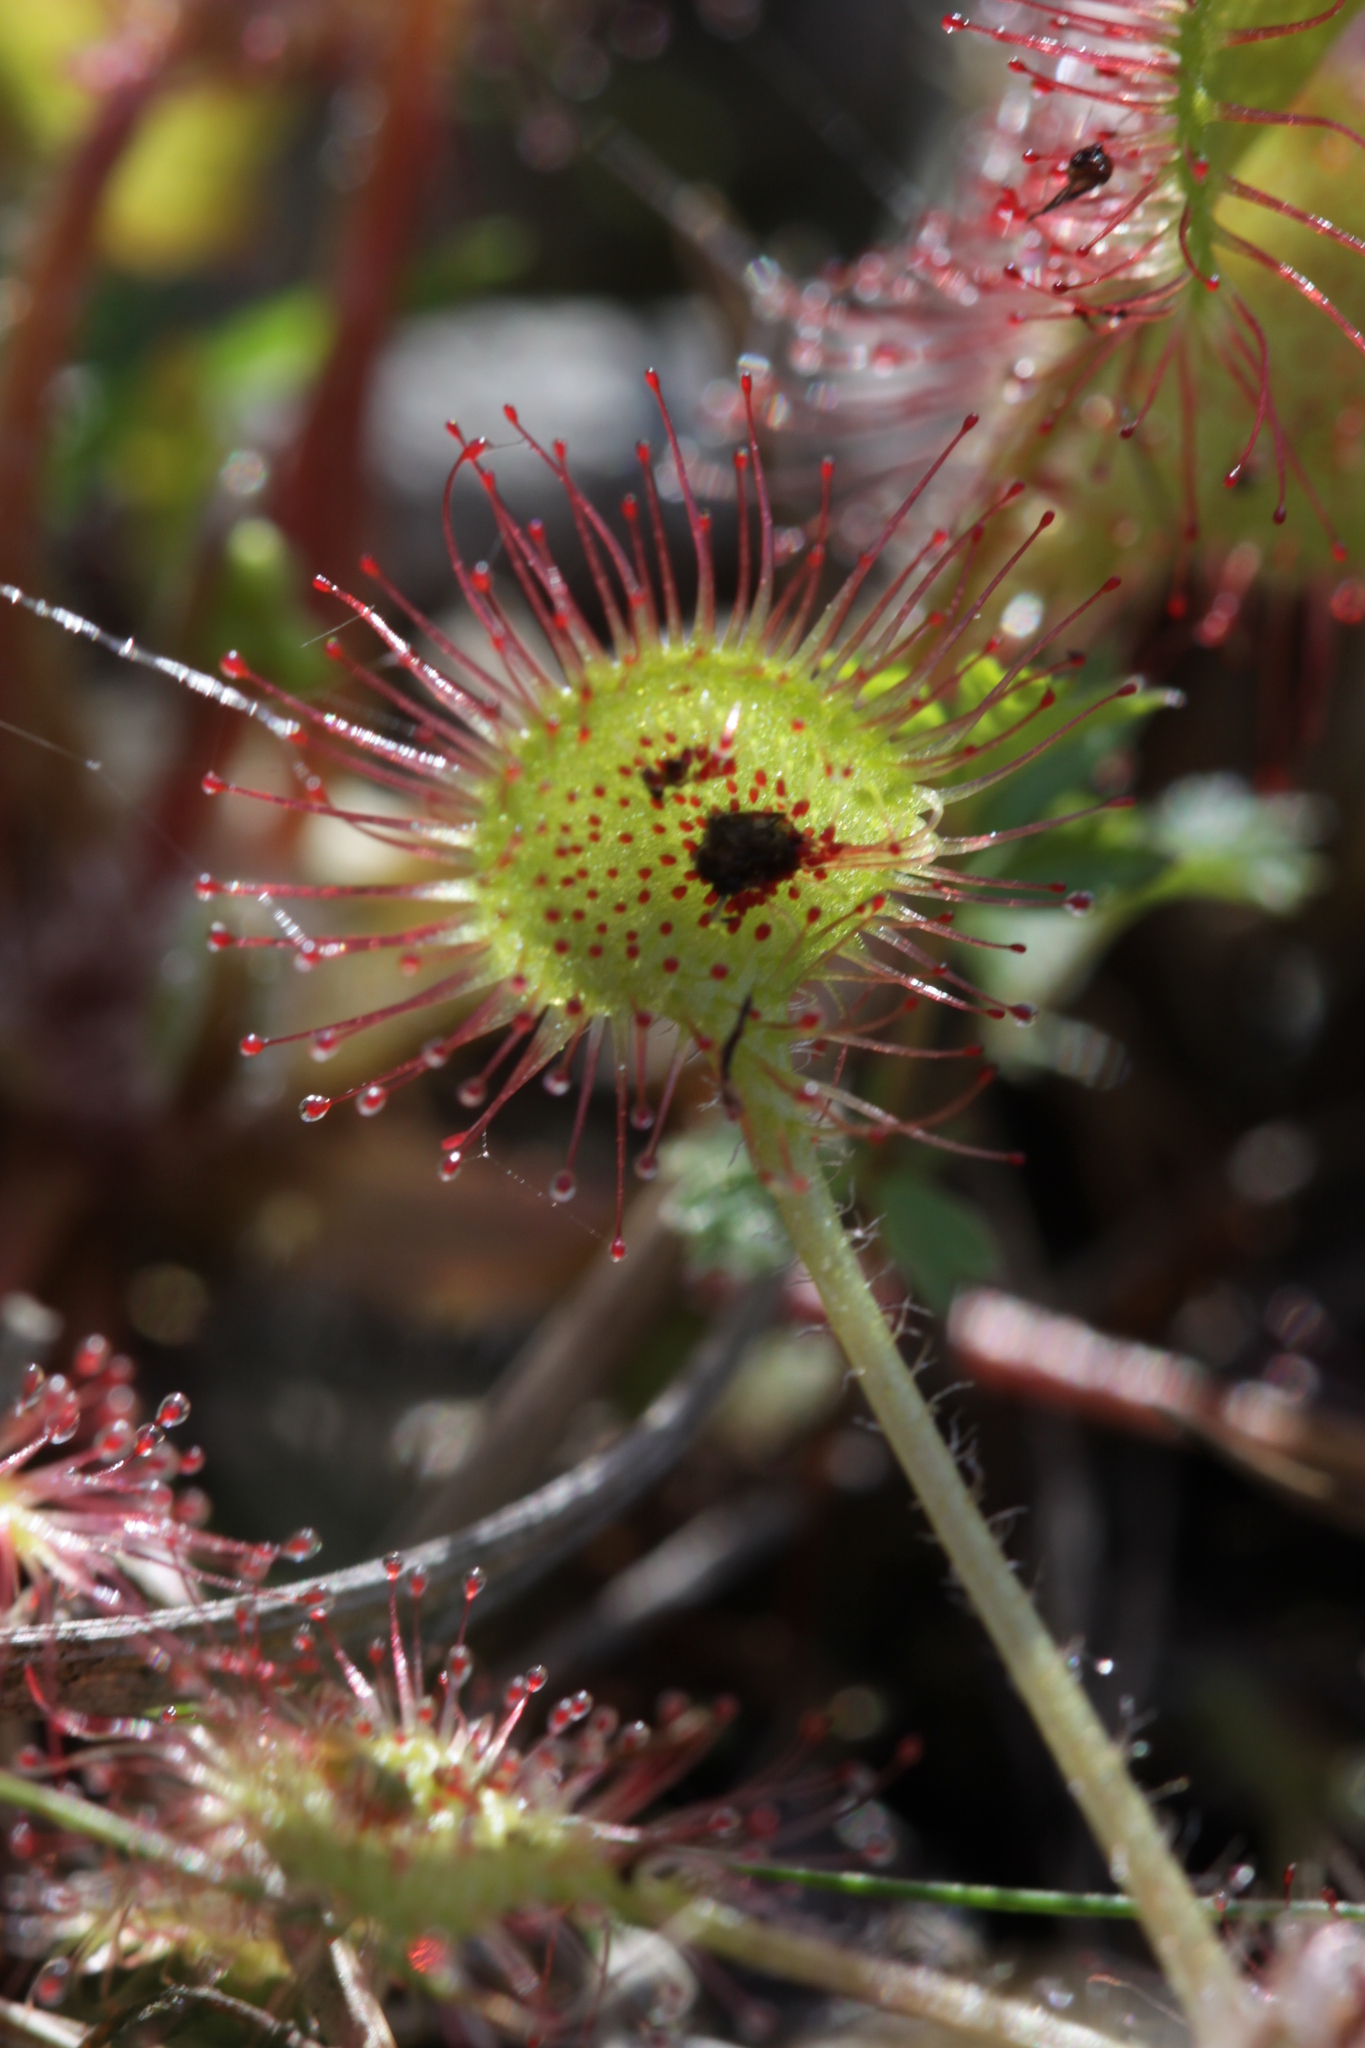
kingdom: Plantae
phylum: Tracheophyta
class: Magnoliopsida
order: Caryophyllales
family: Droseraceae
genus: Drosera
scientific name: Drosera rotundifolia
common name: Round-leaved sundew
